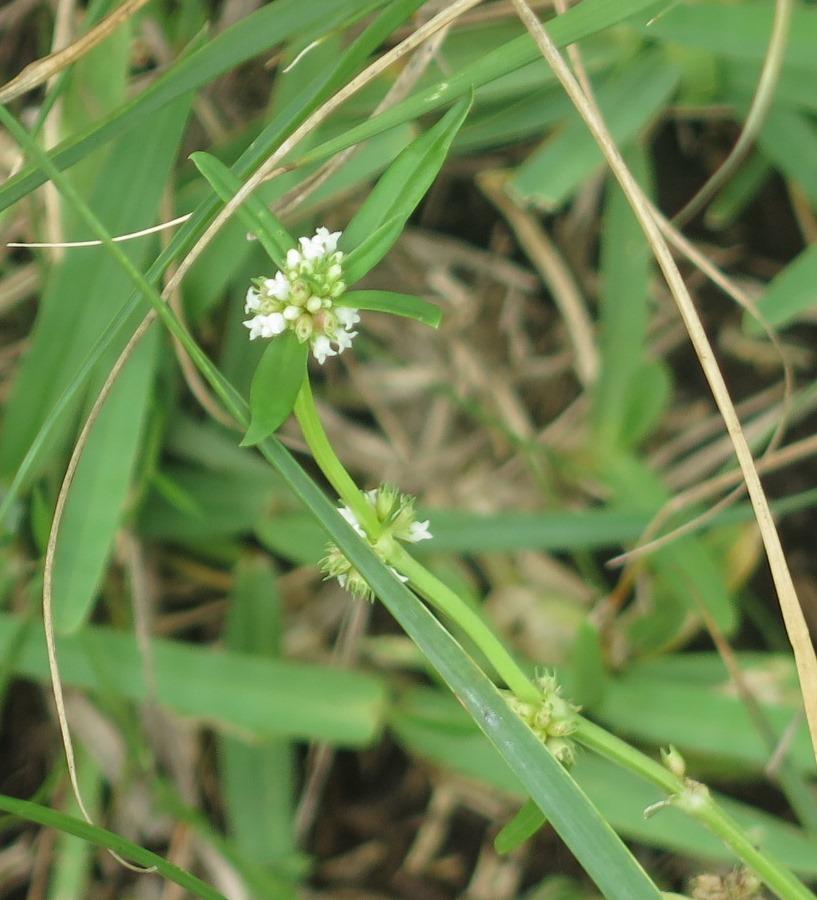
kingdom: Plantae
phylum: Tracheophyta
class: Magnoliopsida
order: Gentianales
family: Rubiaceae
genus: Spermacoce
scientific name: Spermacoce natalensis
